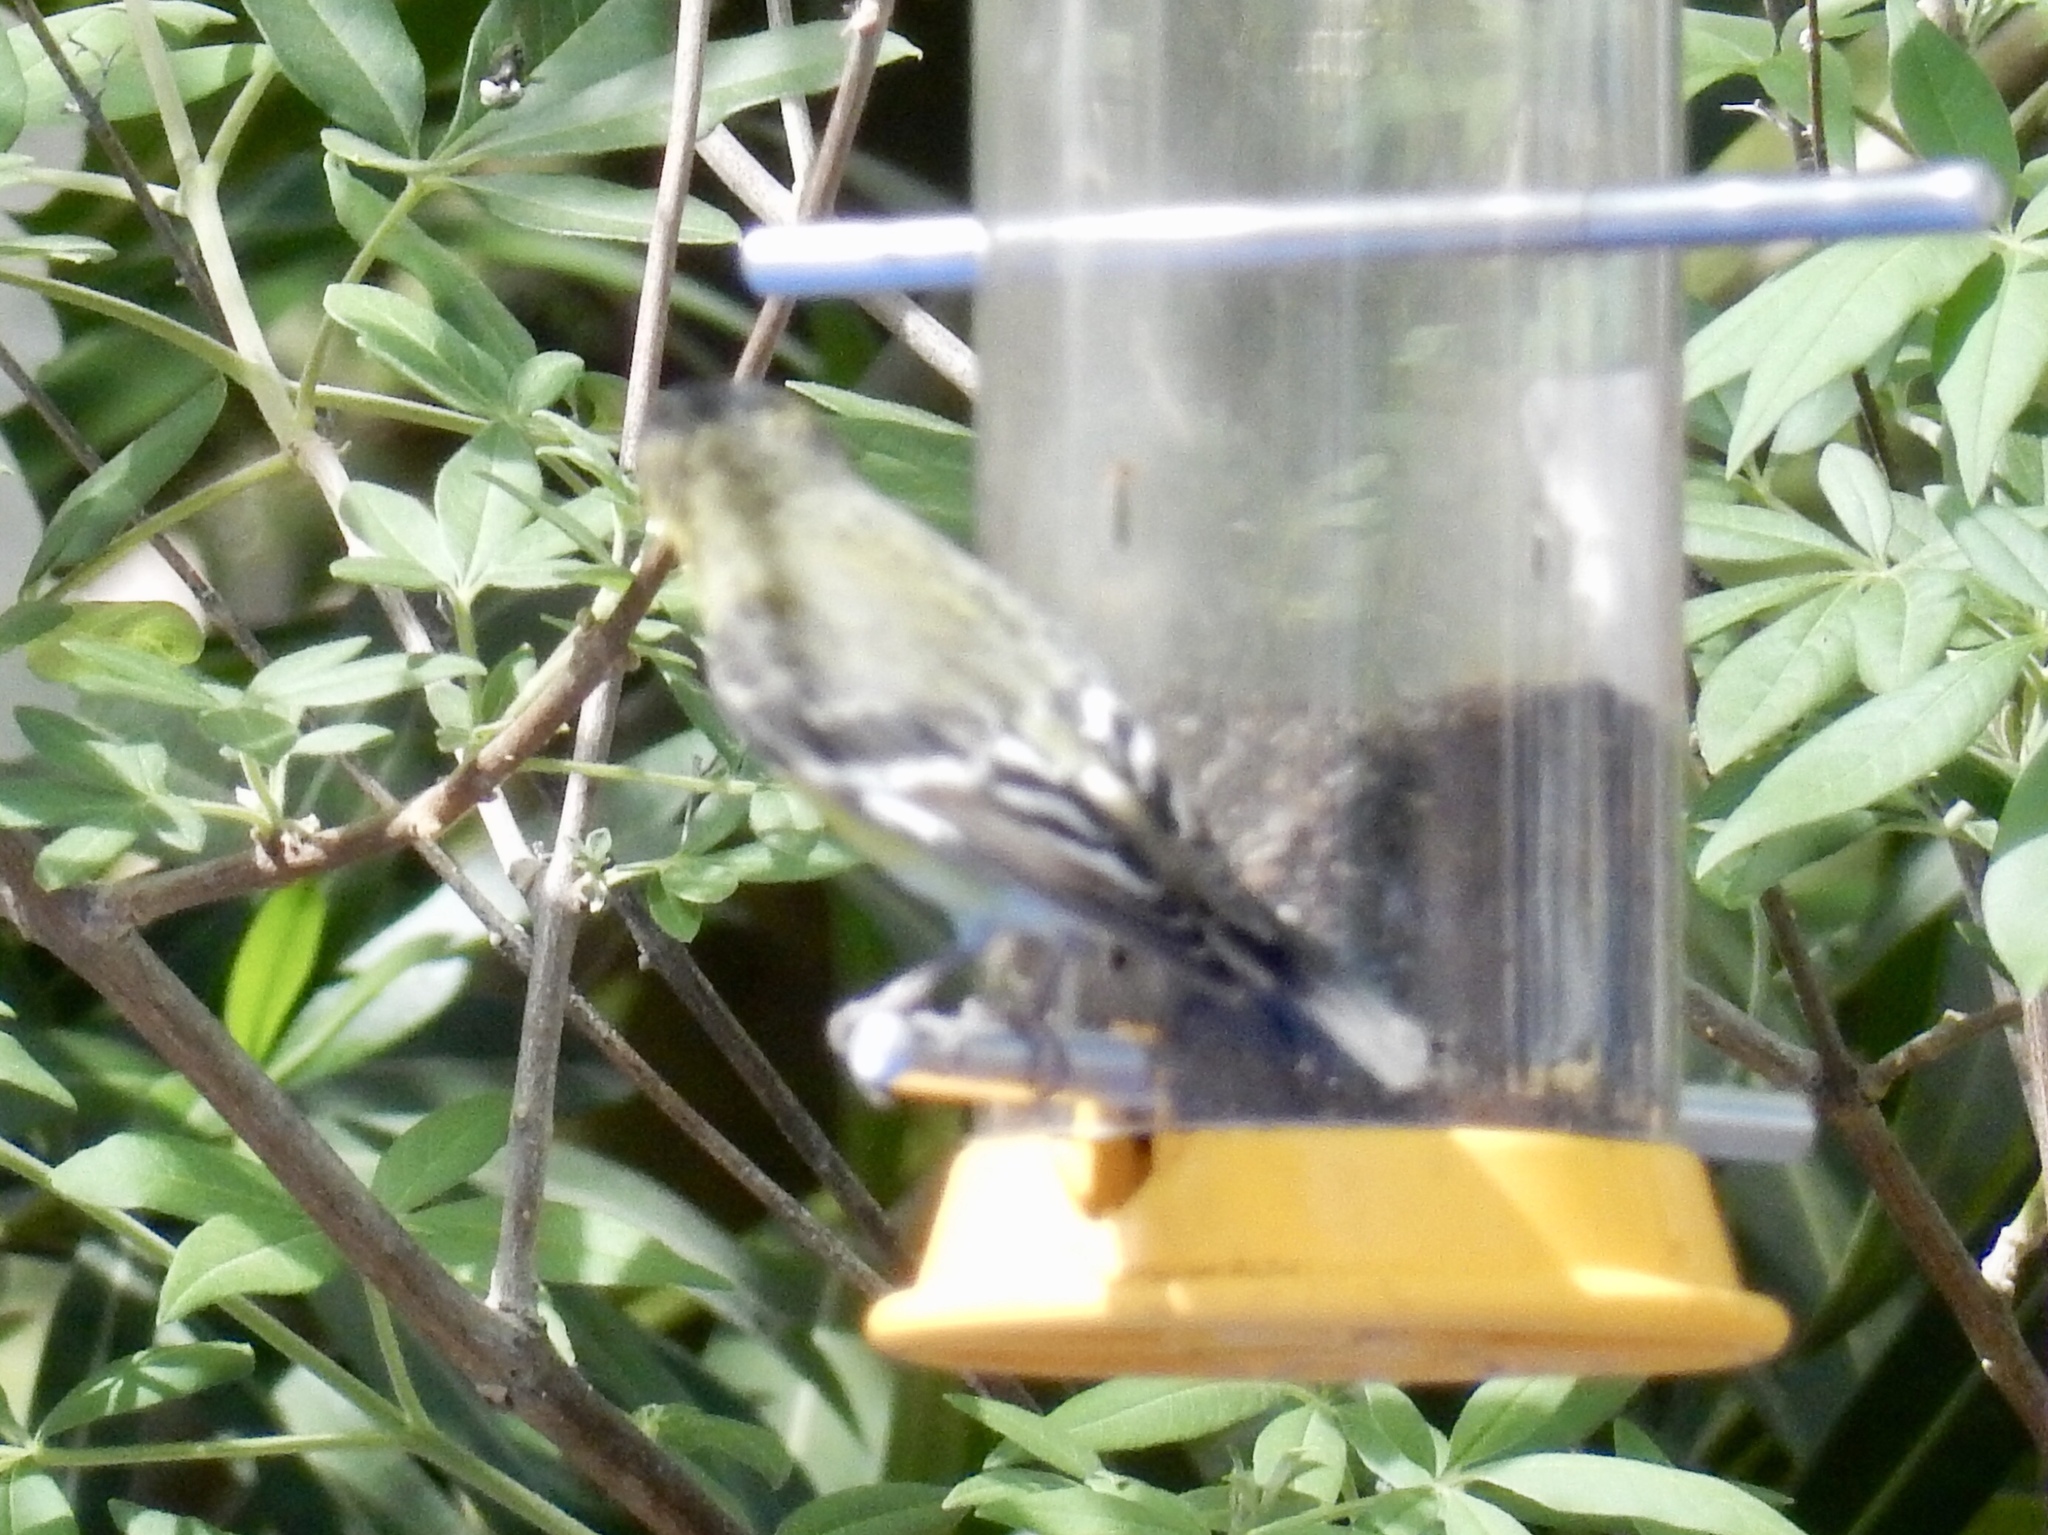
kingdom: Animalia
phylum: Chordata
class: Aves
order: Passeriformes
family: Fringillidae
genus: Spinus
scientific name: Spinus psaltria
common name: Lesser goldfinch
